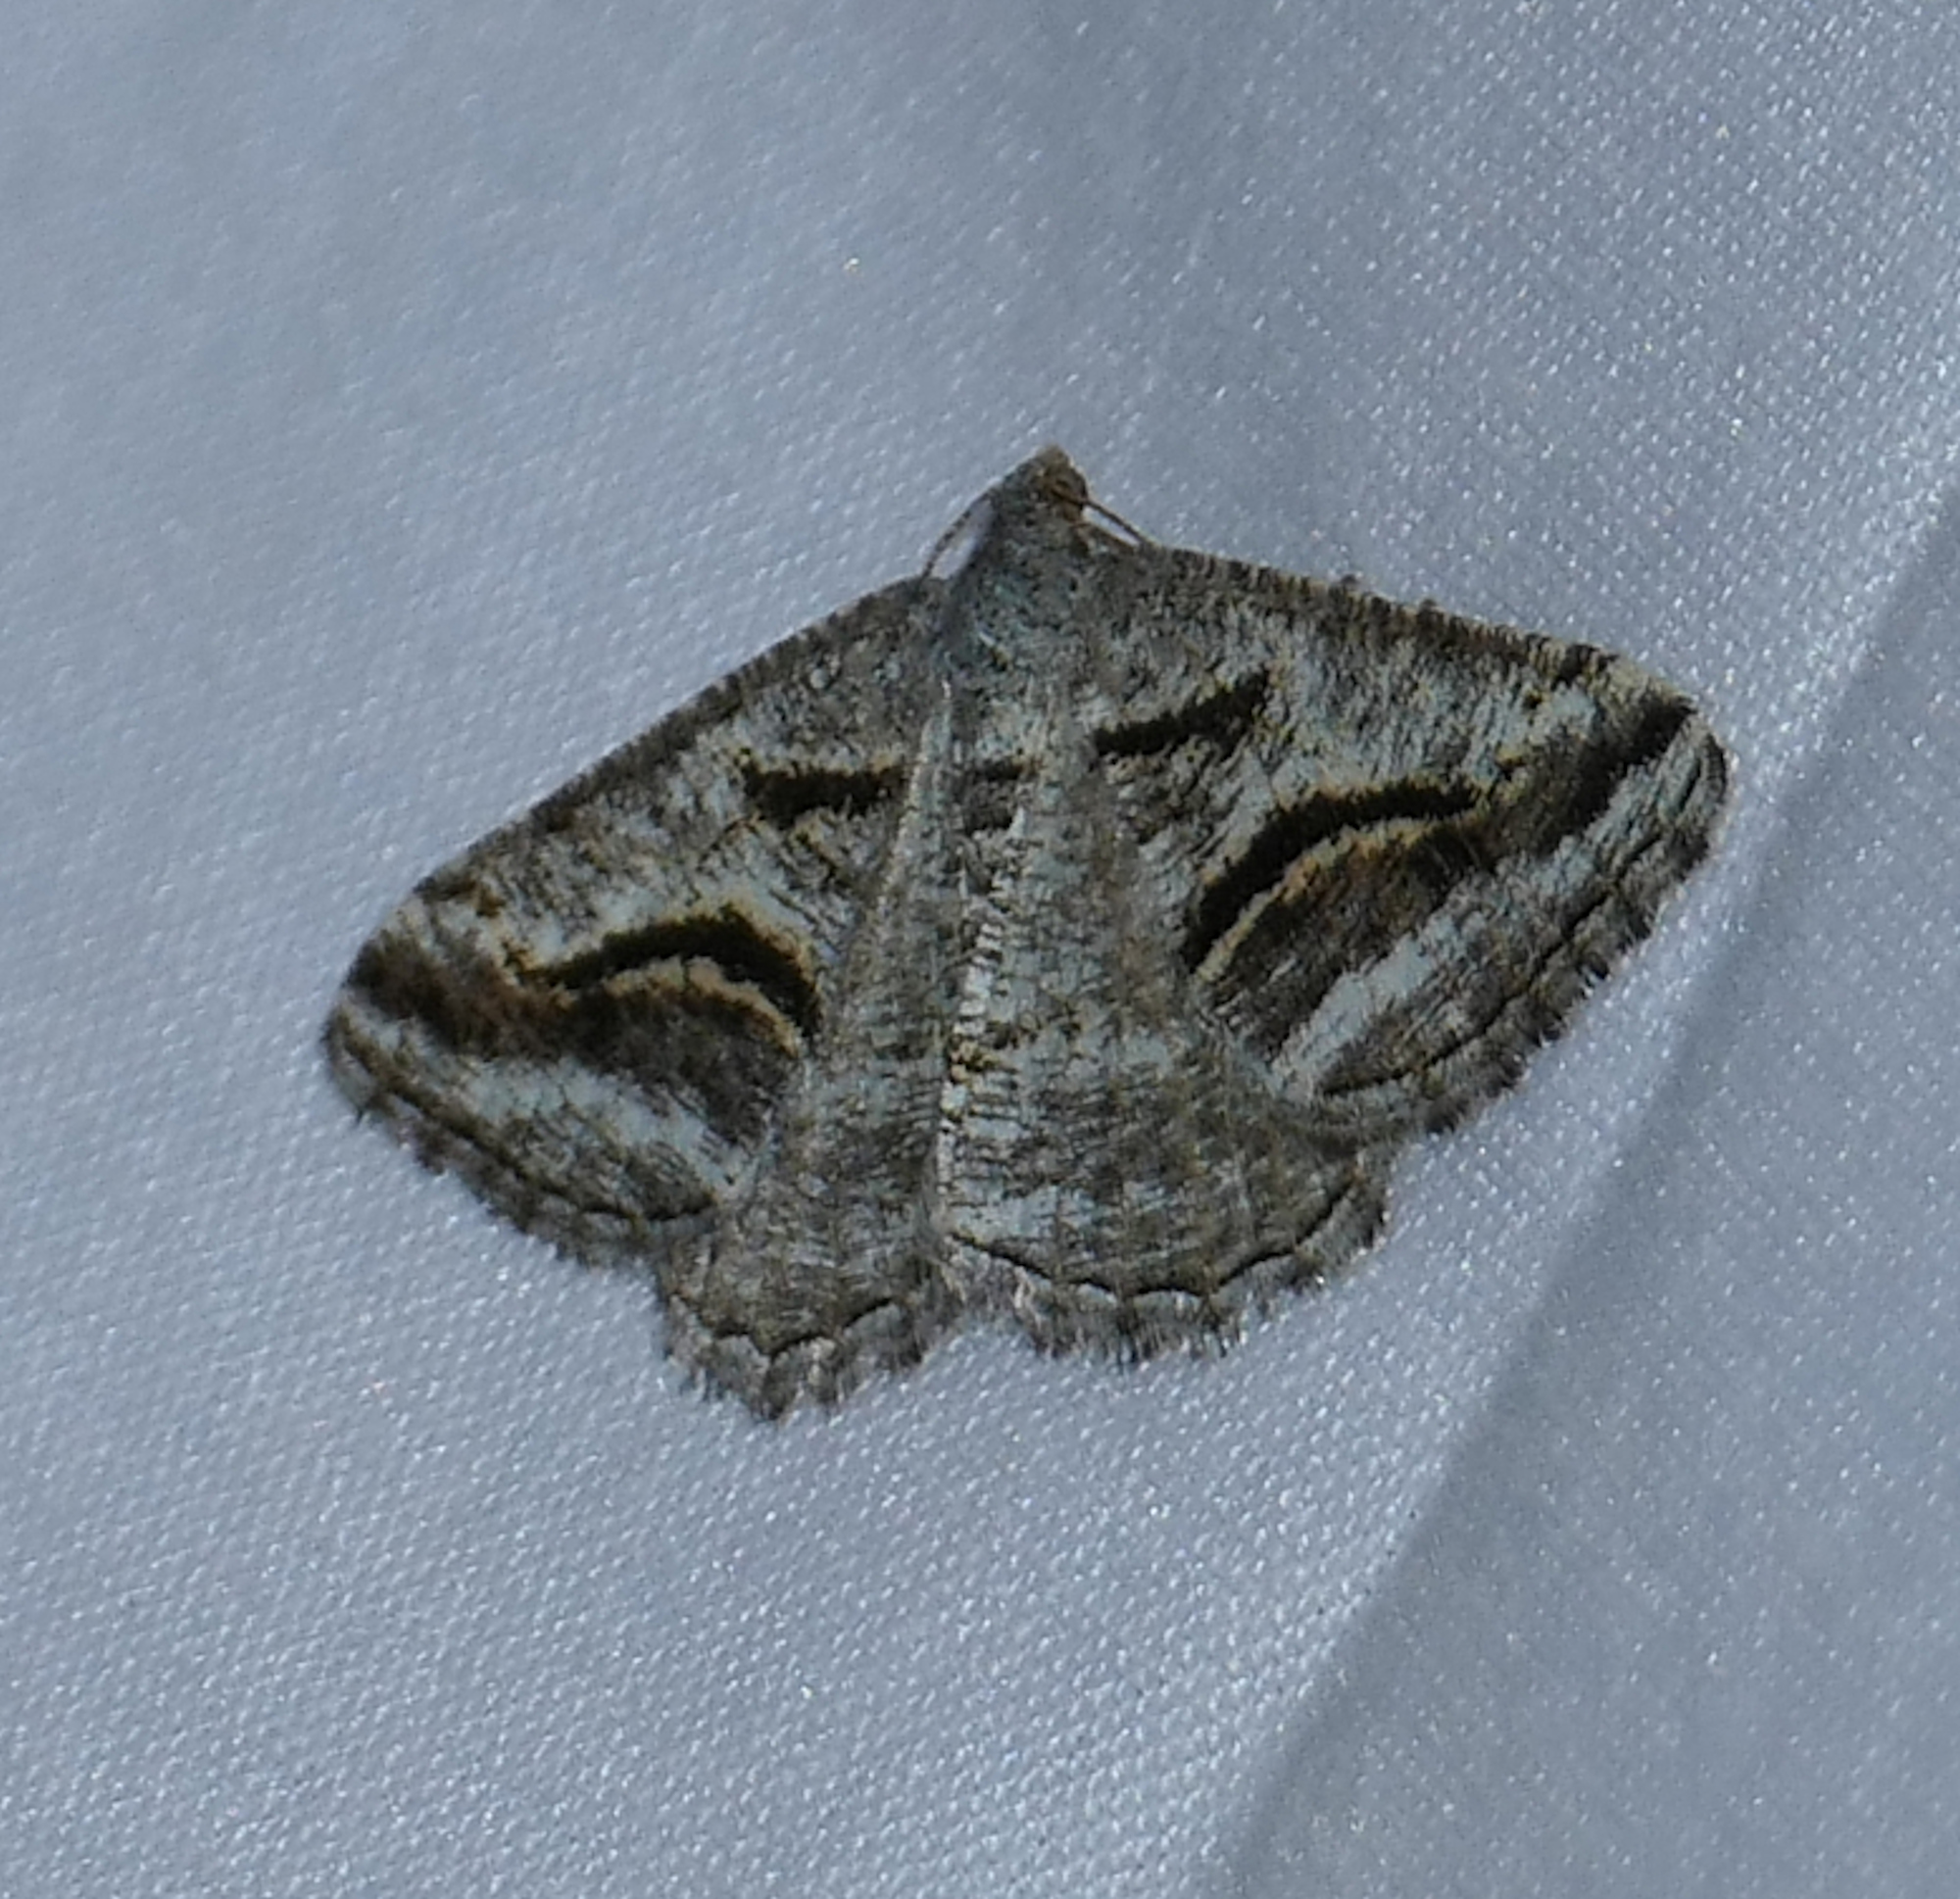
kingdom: Animalia
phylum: Arthropoda
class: Insecta
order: Lepidoptera
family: Geometridae
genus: Digrammia
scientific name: Digrammia curvata
